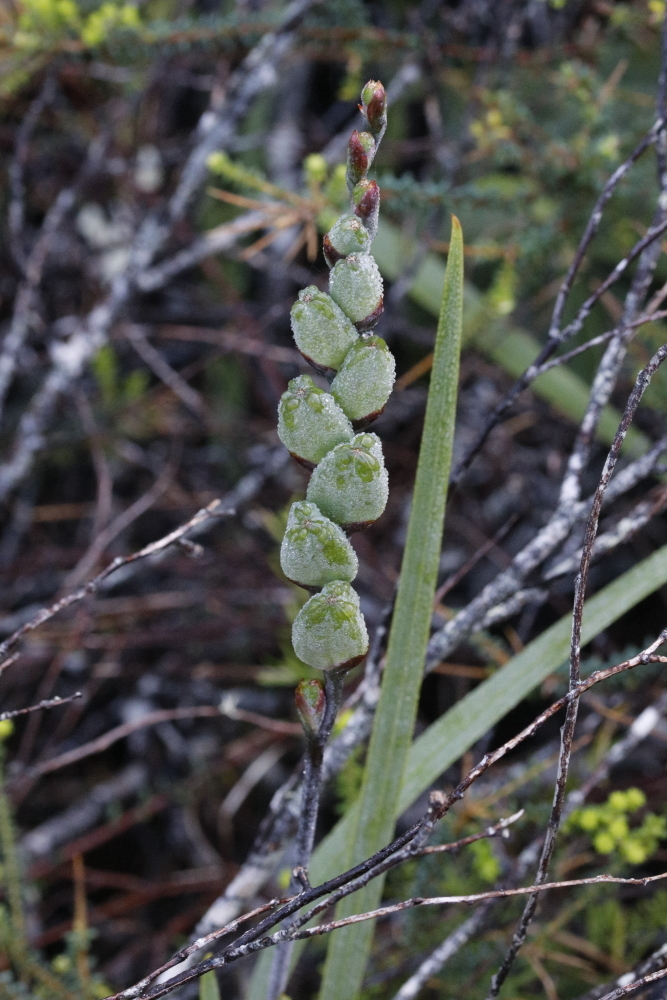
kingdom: Plantae
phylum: Tracheophyta
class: Liliopsida
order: Asparagales
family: Iridaceae
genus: Chasmanthe
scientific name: Chasmanthe aethiopica
